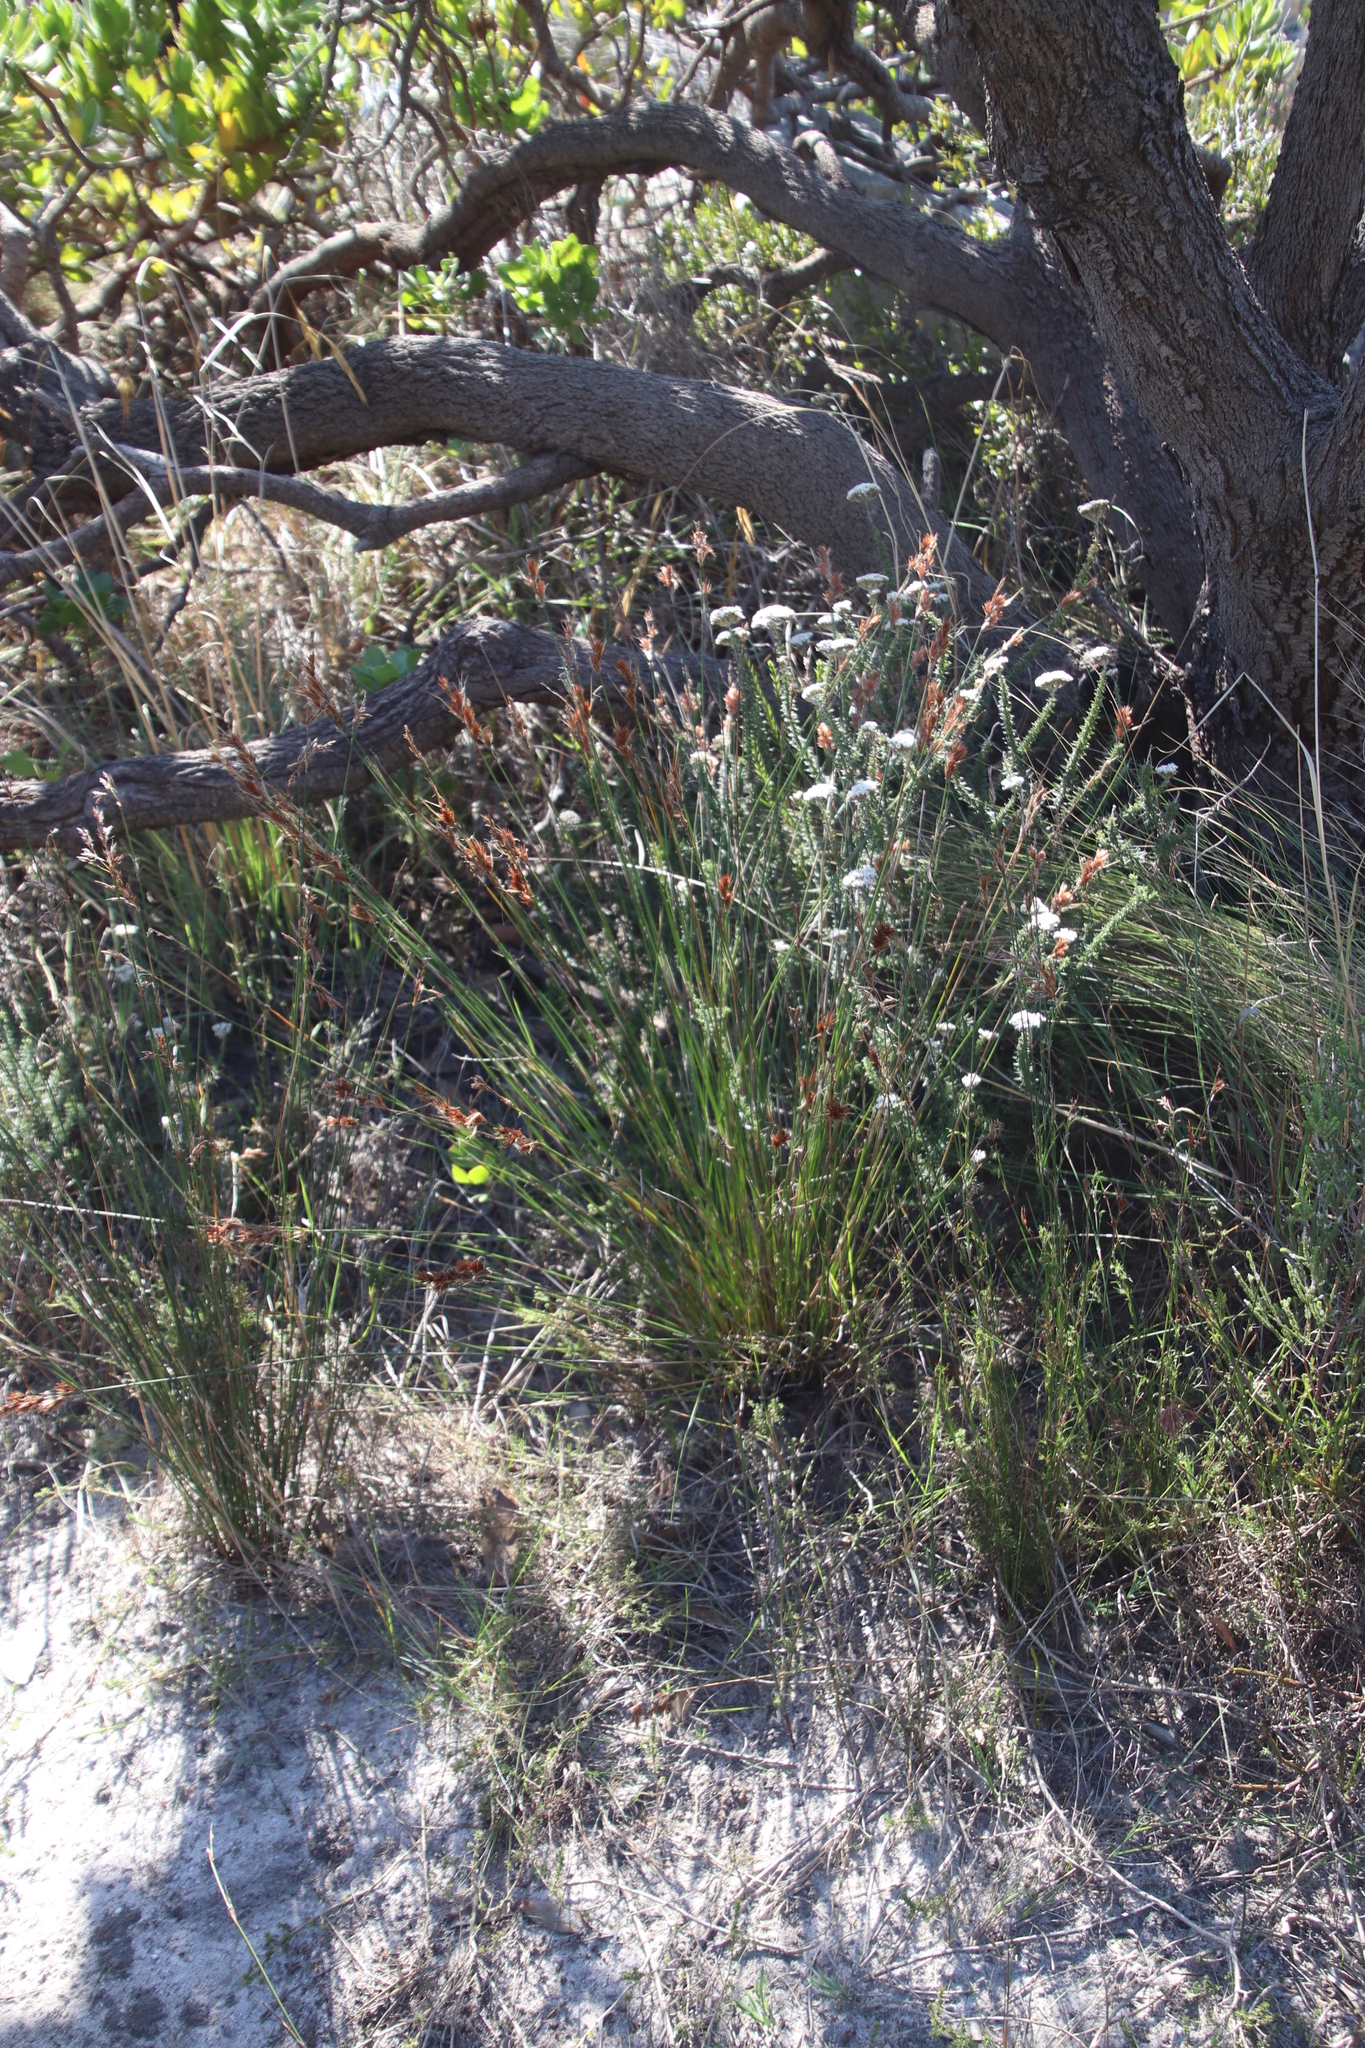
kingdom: Plantae
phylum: Tracheophyta
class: Liliopsida
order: Poales
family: Restionaceae
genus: Thamnochortus
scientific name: Thamnochortus lucens
